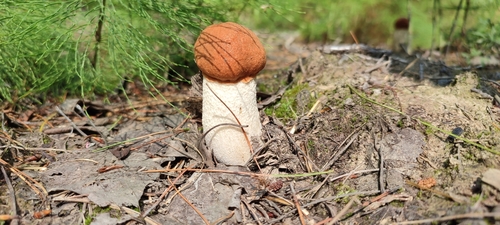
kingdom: Fungi
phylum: Basidiomycota
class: Agaricomycetes
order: Boletales
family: Boletaceae
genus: Leccinum
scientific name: Leccinum albostipitatum
